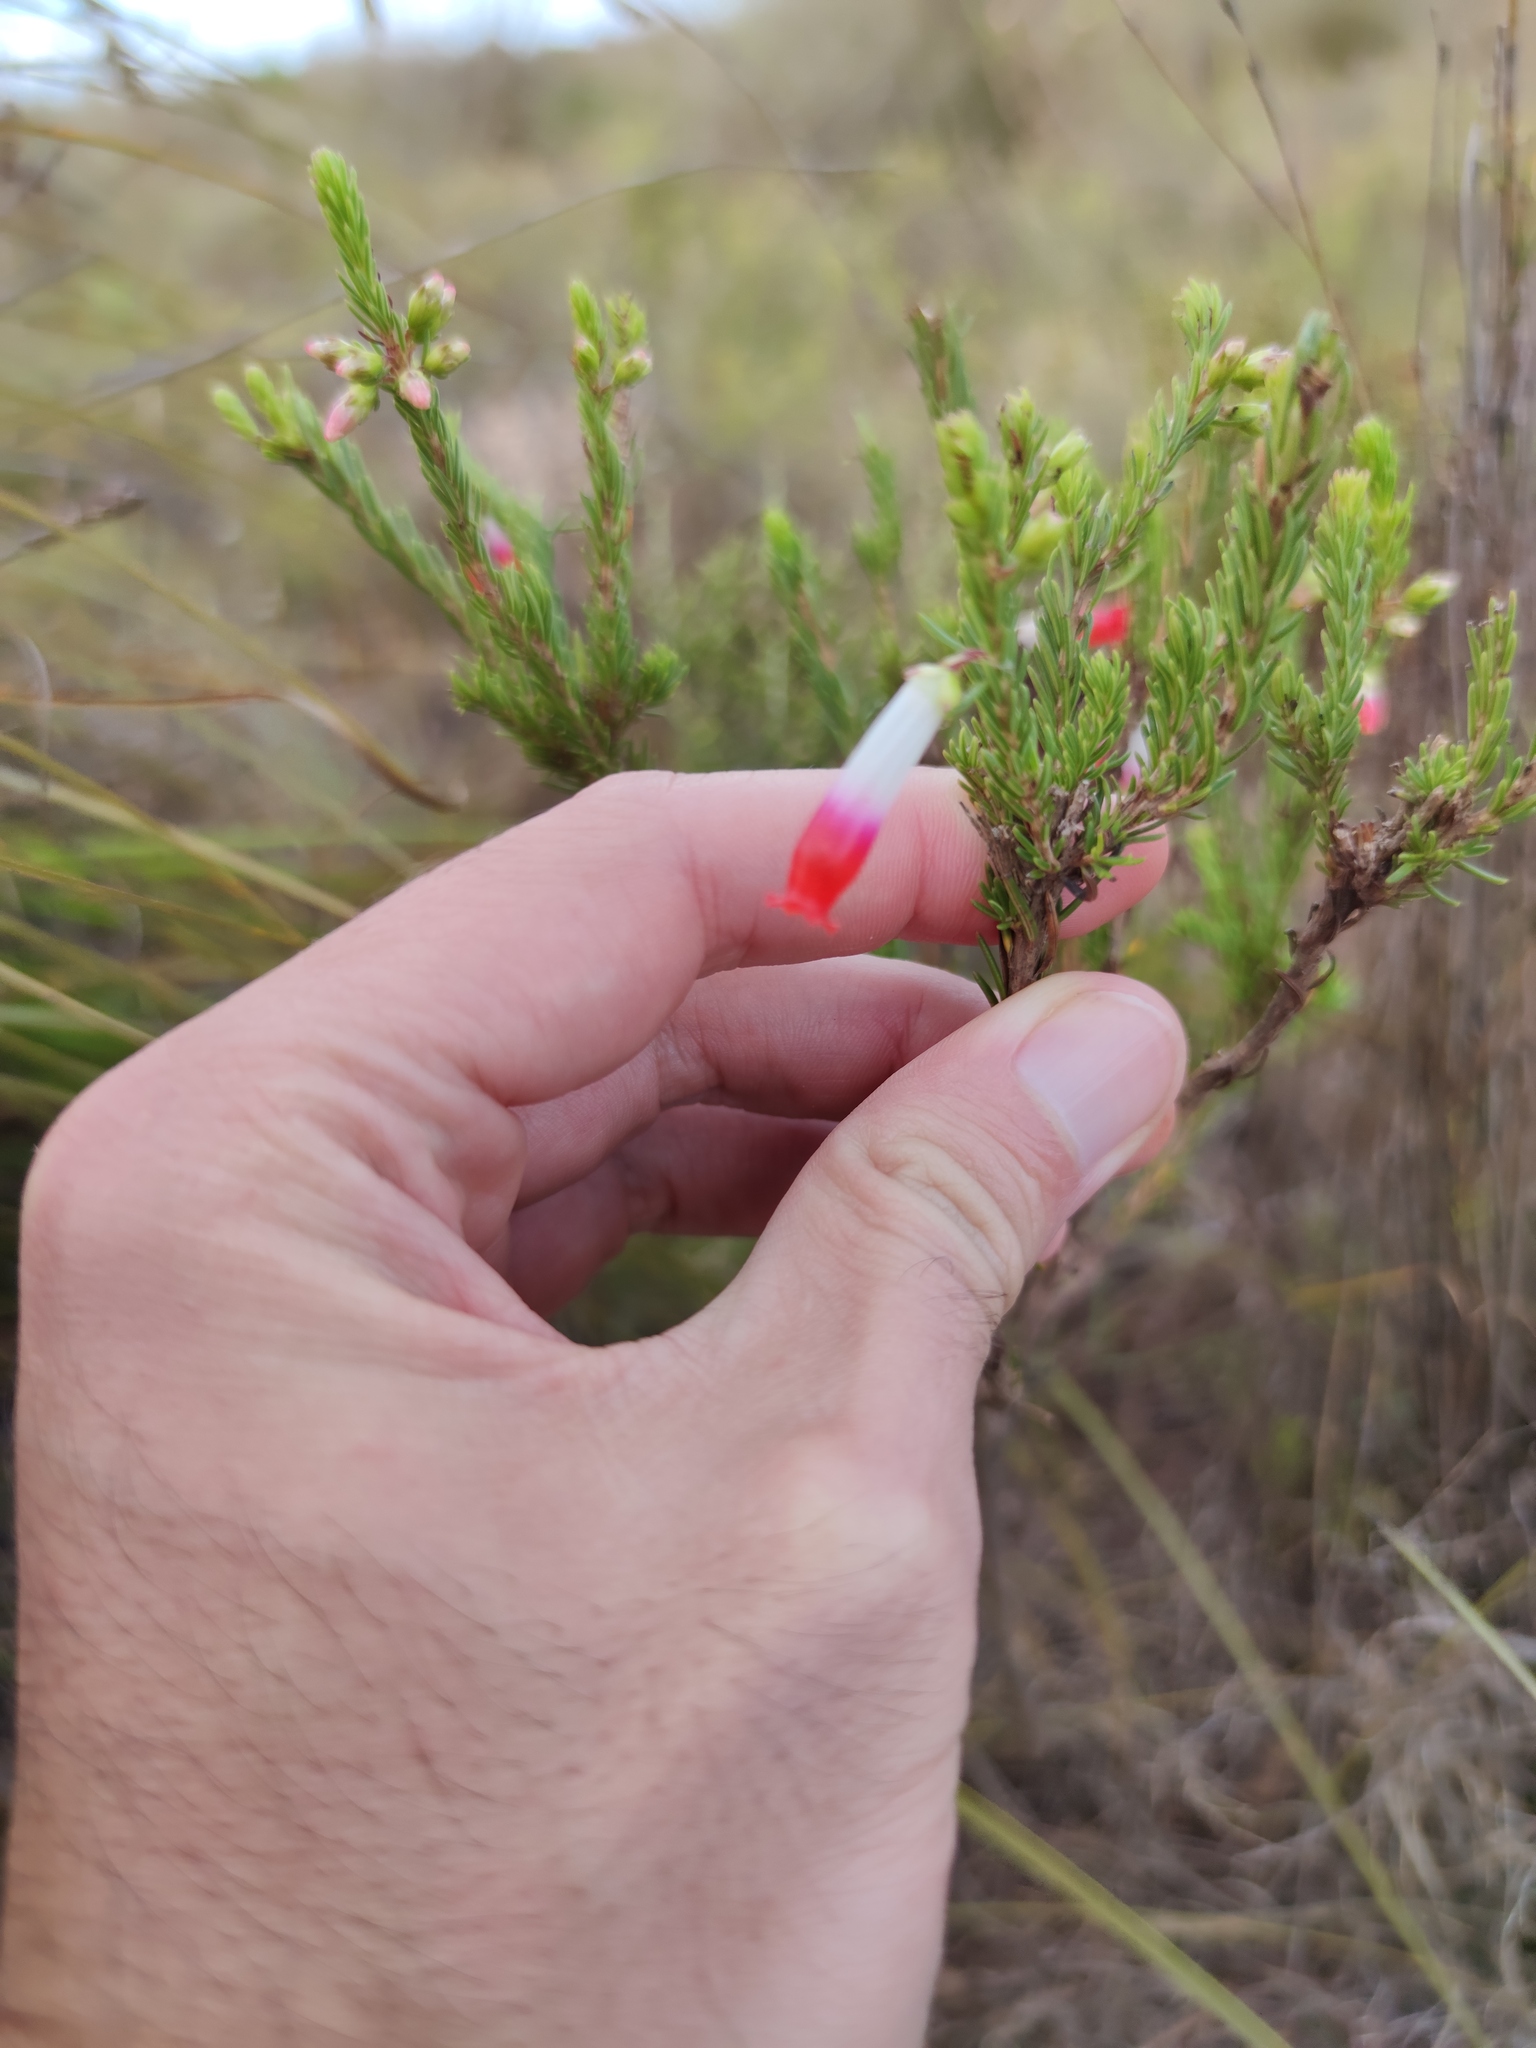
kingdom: Plantae
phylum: Tracheophyta
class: Magnoliopsida
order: Ericales
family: Ericaceae
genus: Erica
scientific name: Erica regia
